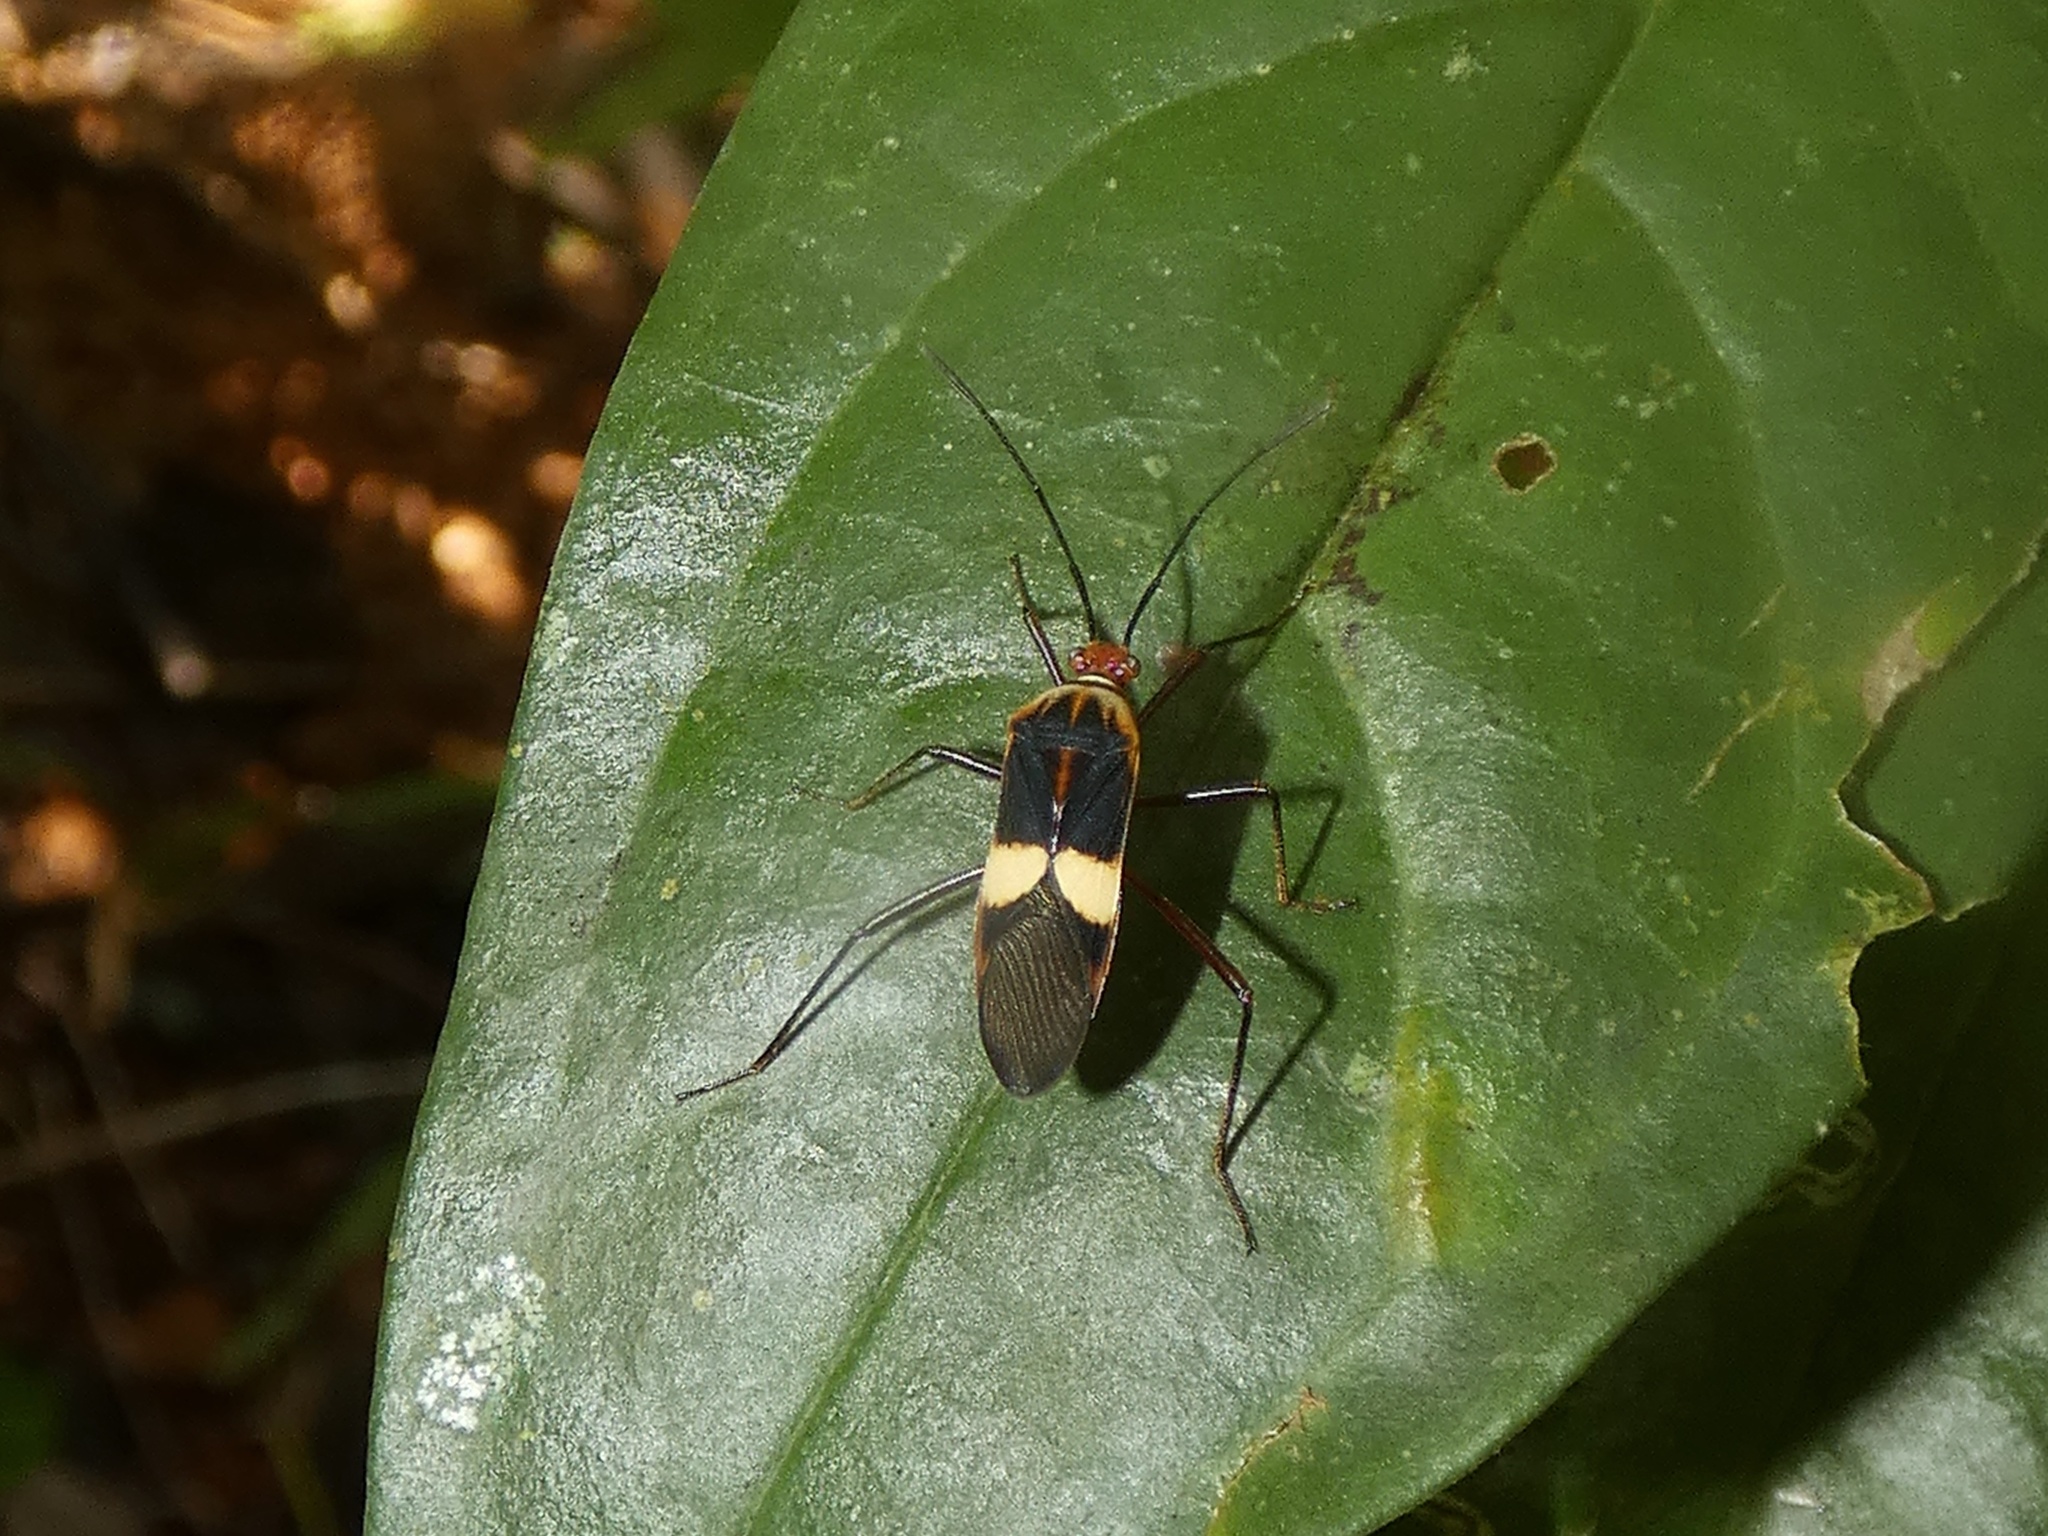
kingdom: Animalia
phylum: Arthropoda
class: Insecta
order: Hemiptera
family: Coreidae
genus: Hypselonotus
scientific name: Hypselonotus interruptus
